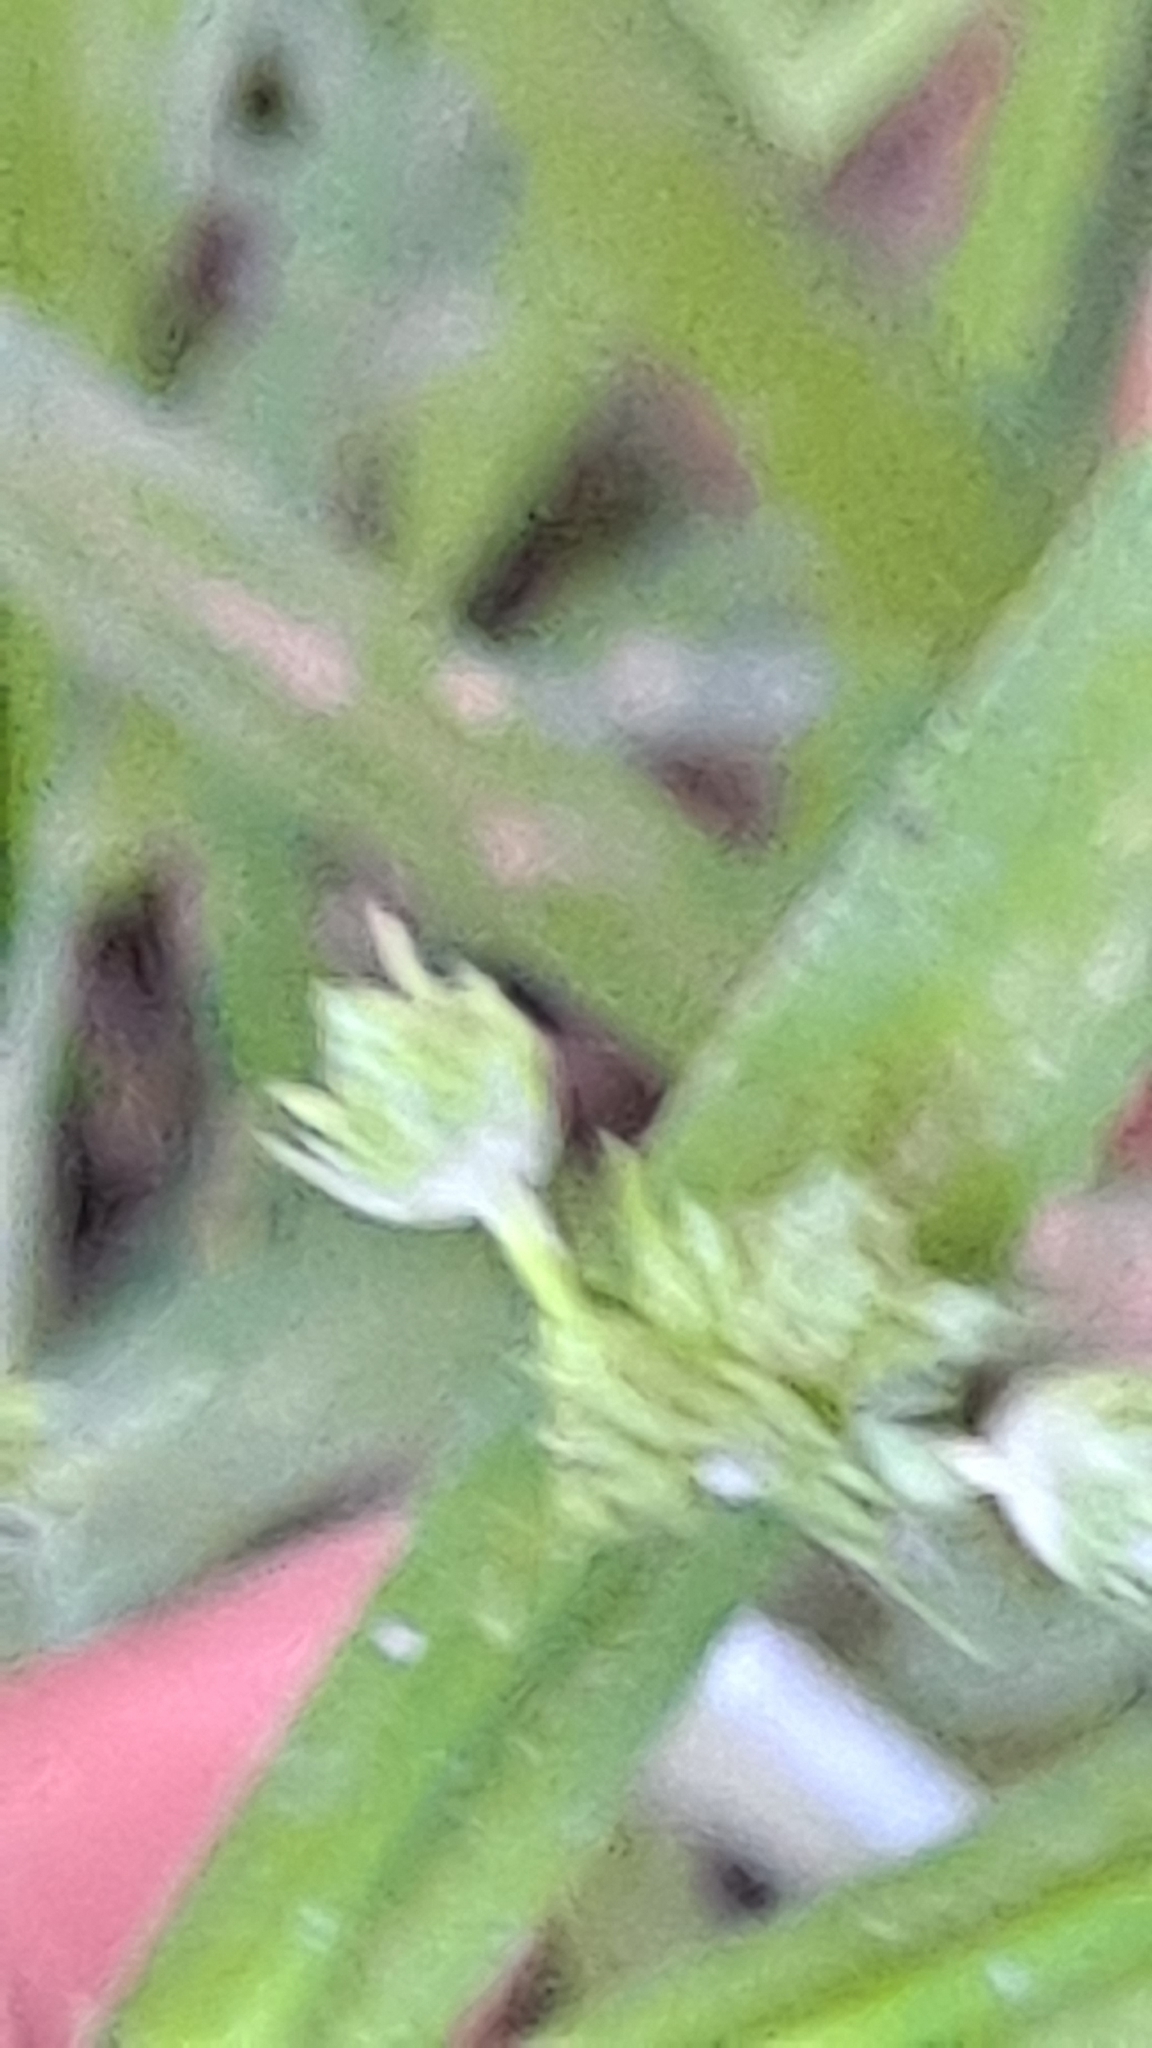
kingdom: Plantae
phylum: Tracheophyta
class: Liliopsida
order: Poales
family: Cyperaceae
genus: Cyperus
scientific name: Cyperus eragrostis
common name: Tall flatsedge
